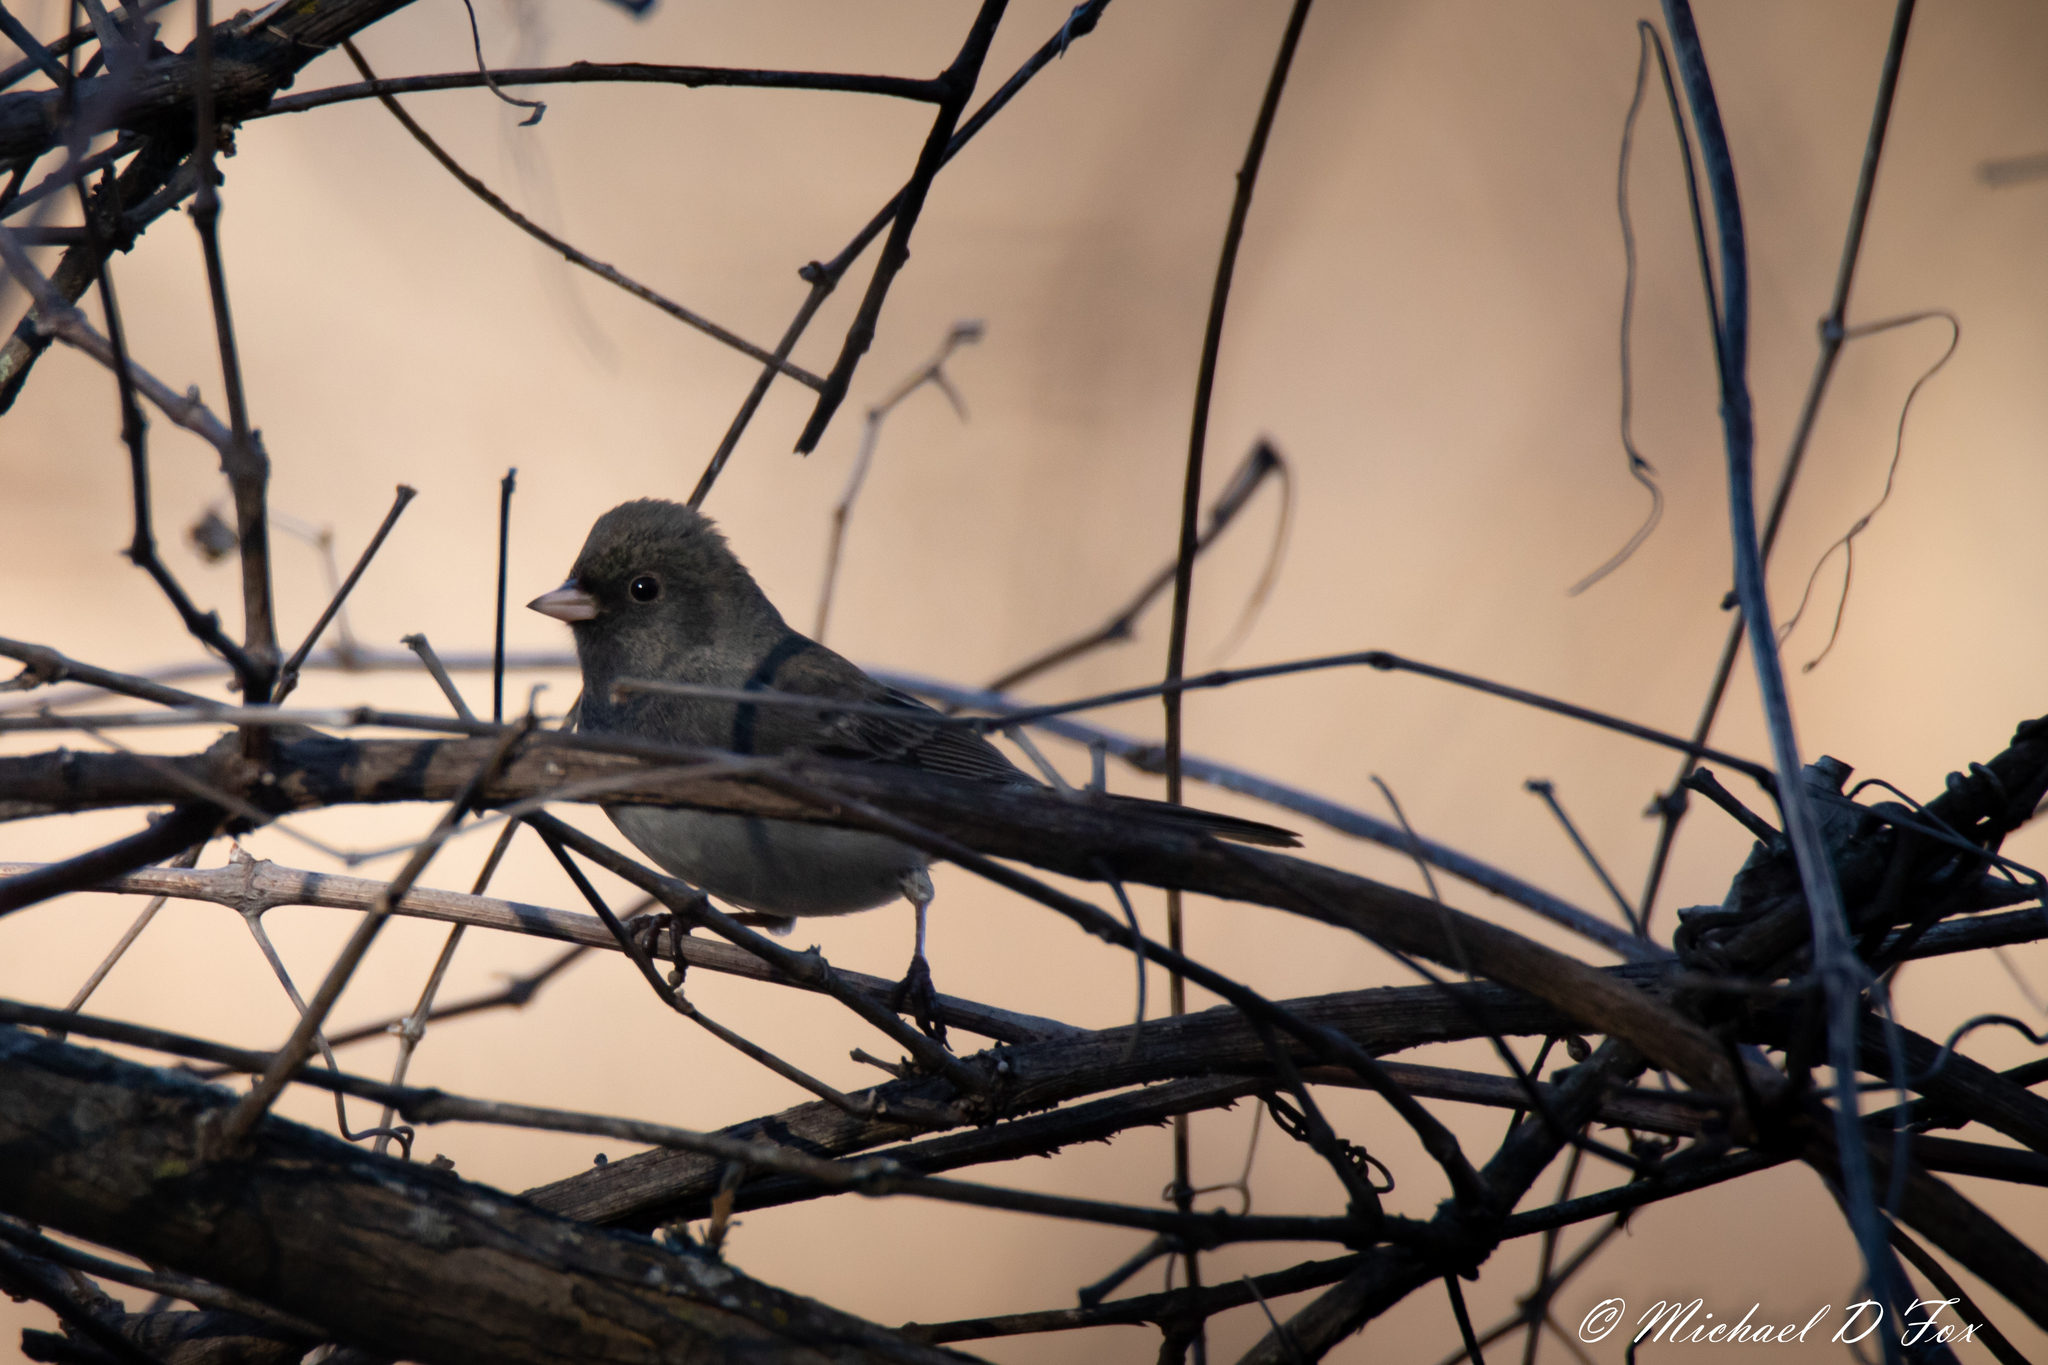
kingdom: Animalia
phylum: Chordata
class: Aves
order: Passeriformes
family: Passerellidae
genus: Junco
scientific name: Junco hyemalis
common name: Dark-eyed junco
